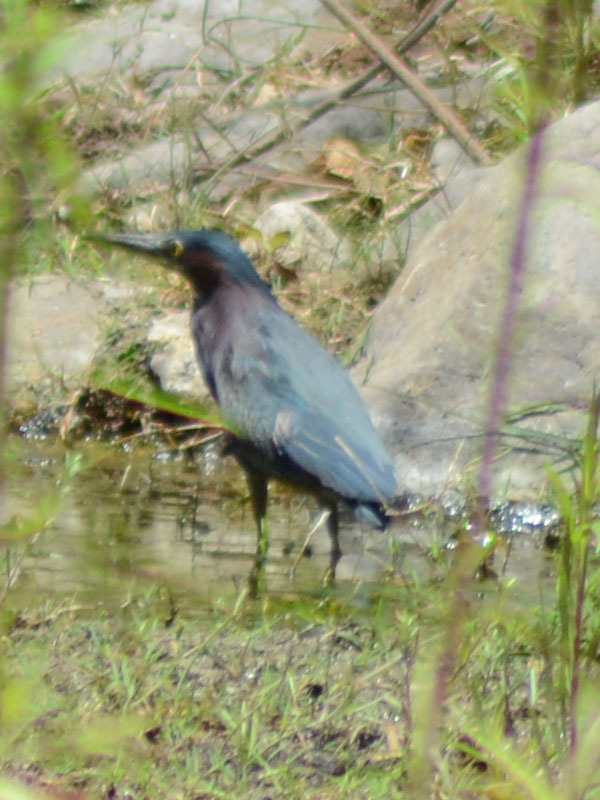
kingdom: Animalia
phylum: Chordata
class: Aves
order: Pelecaniformes
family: Ardeidae
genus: Butorides
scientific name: Butorides virescens
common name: Green heron
